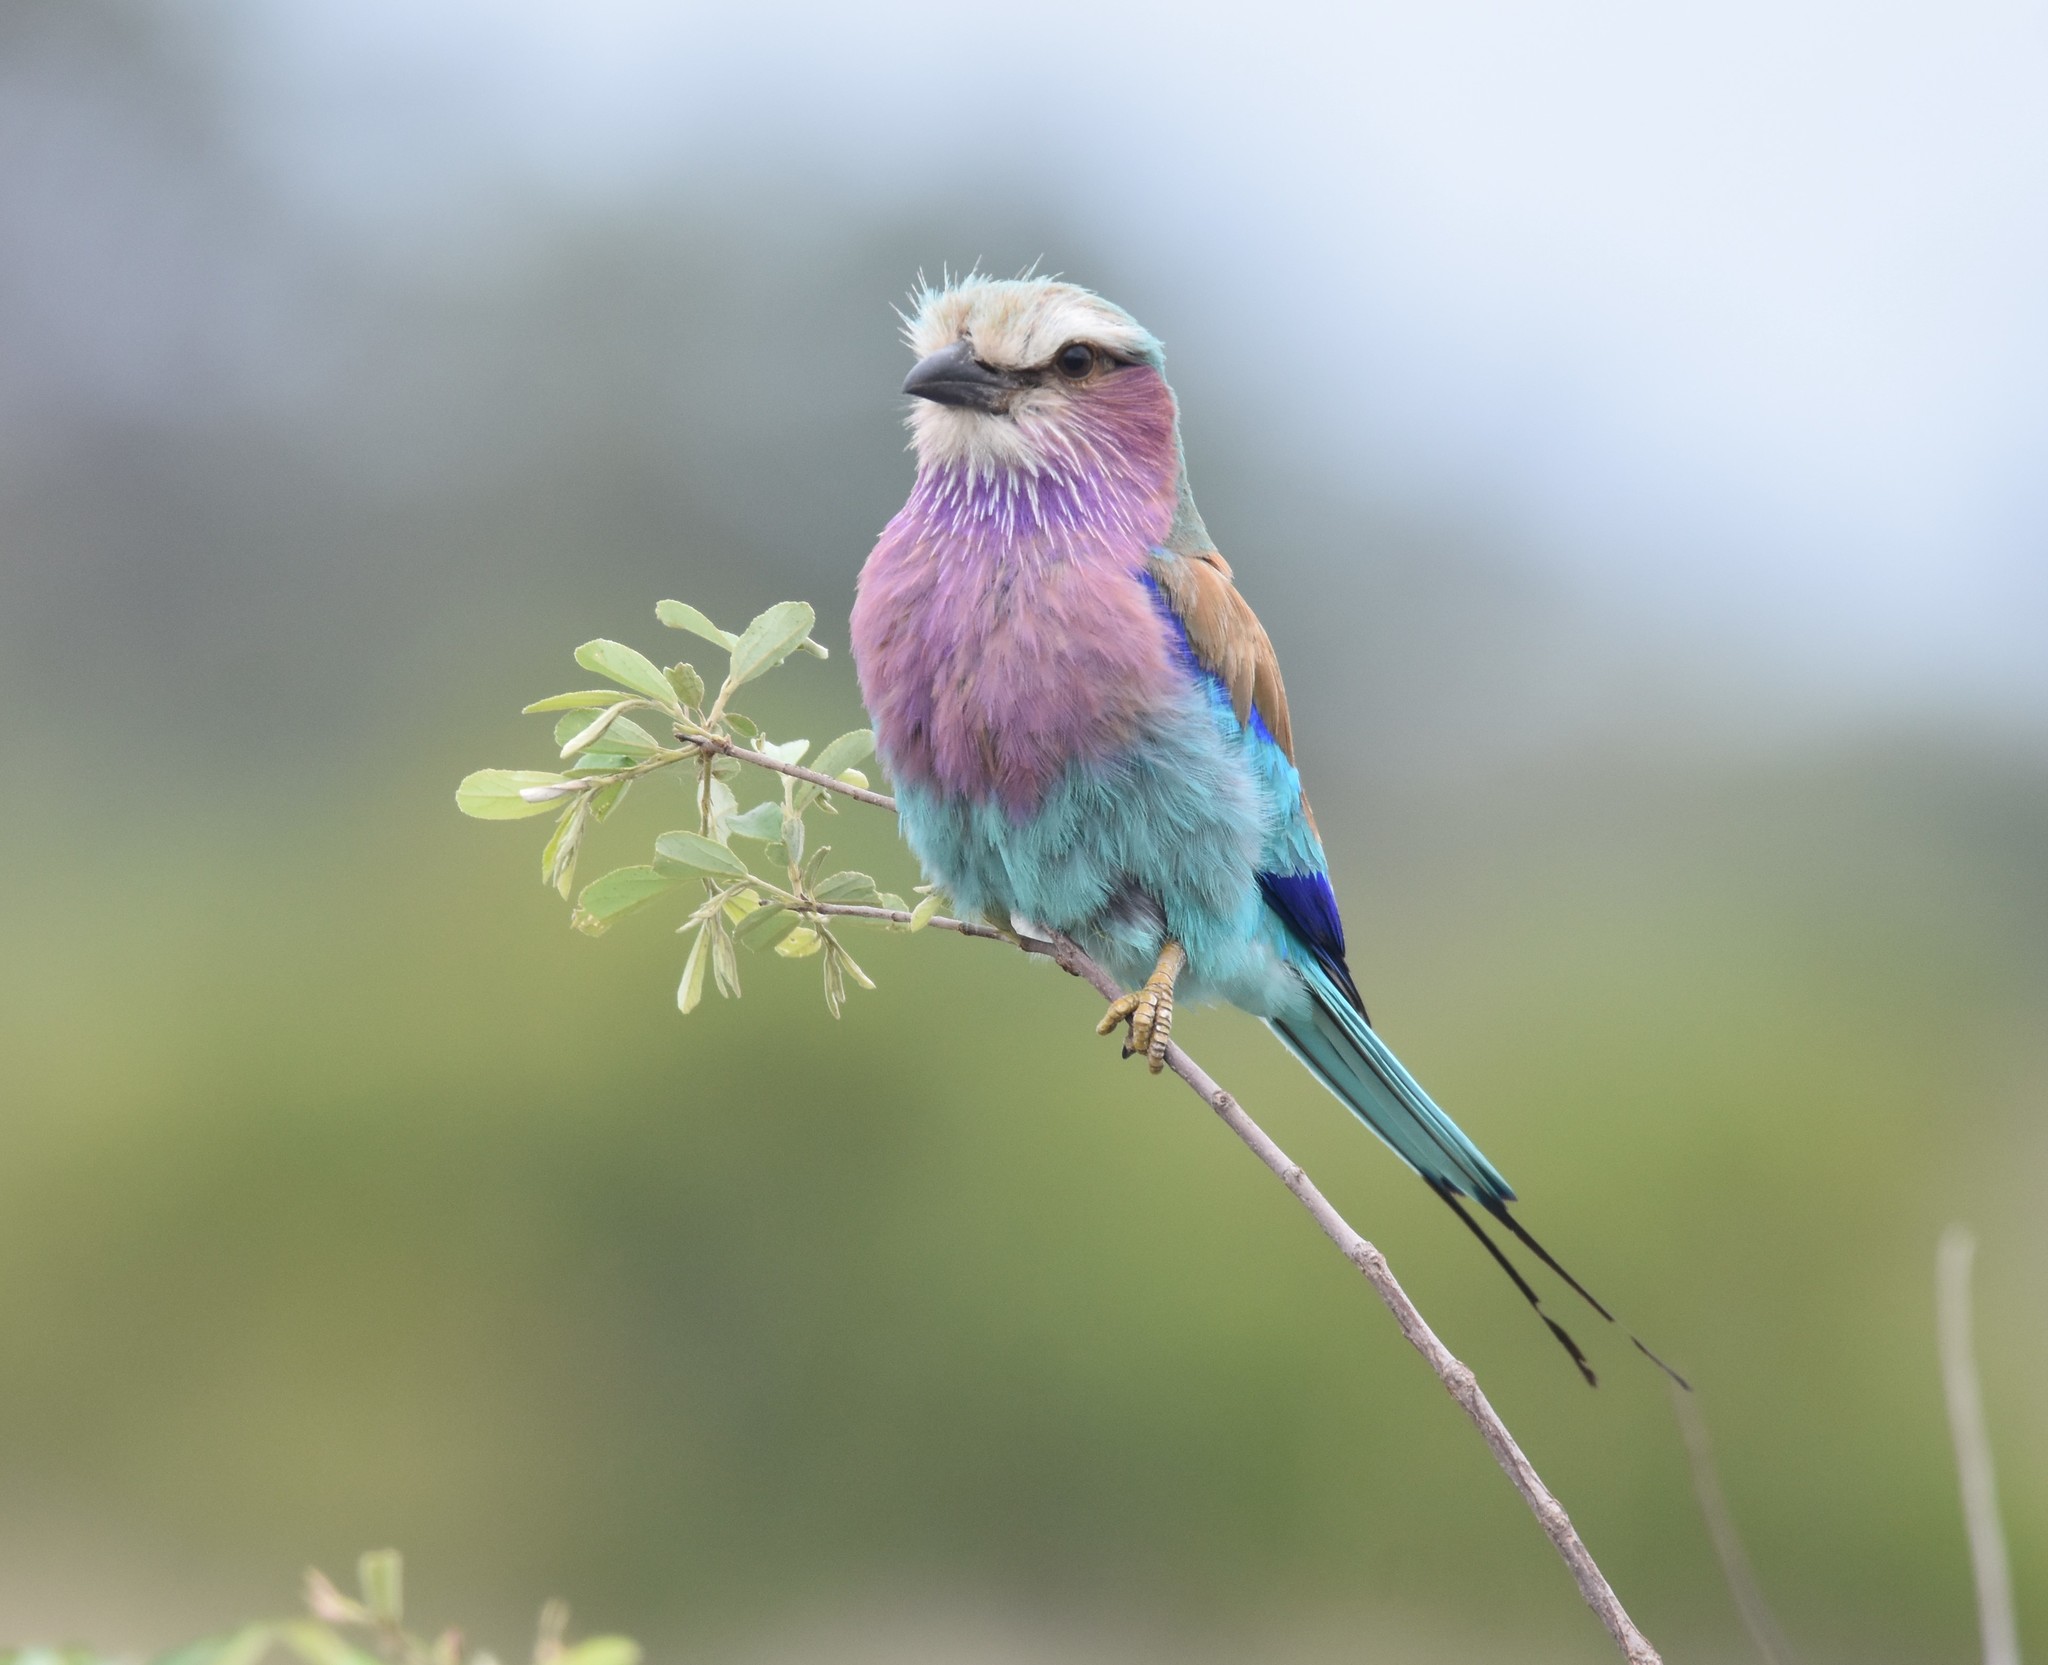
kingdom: Animalia
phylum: Chordata
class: Aves
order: Coraciiformes
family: Coraciidae
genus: Coracias
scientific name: Coracias caudatus
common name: Lilac-breasted roller
